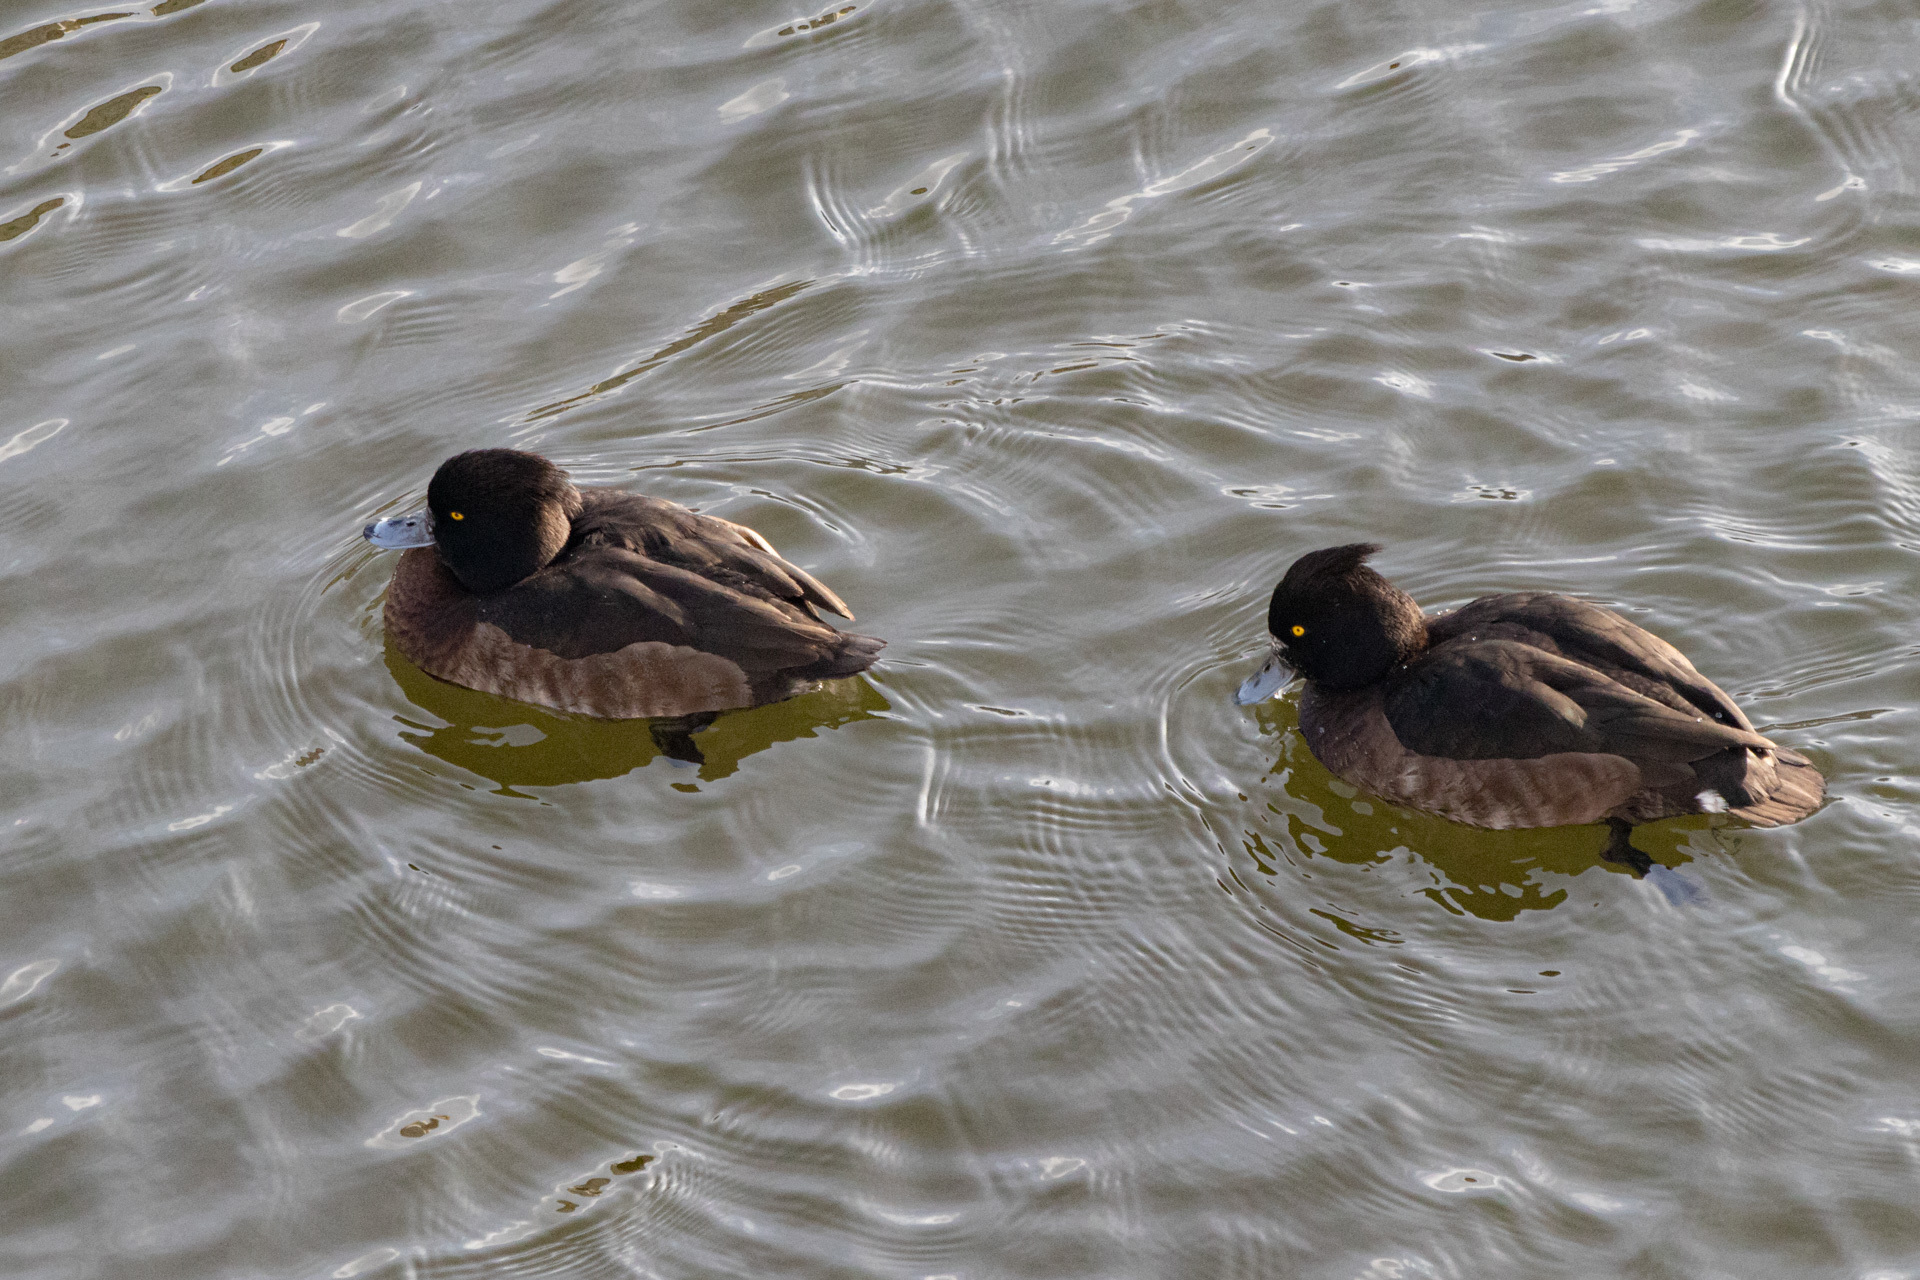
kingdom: Animalia
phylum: Chordata
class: Aves
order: Anseriformes
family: Anatidae
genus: Aythya
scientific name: Aythya fuligula
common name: Tufted duck
